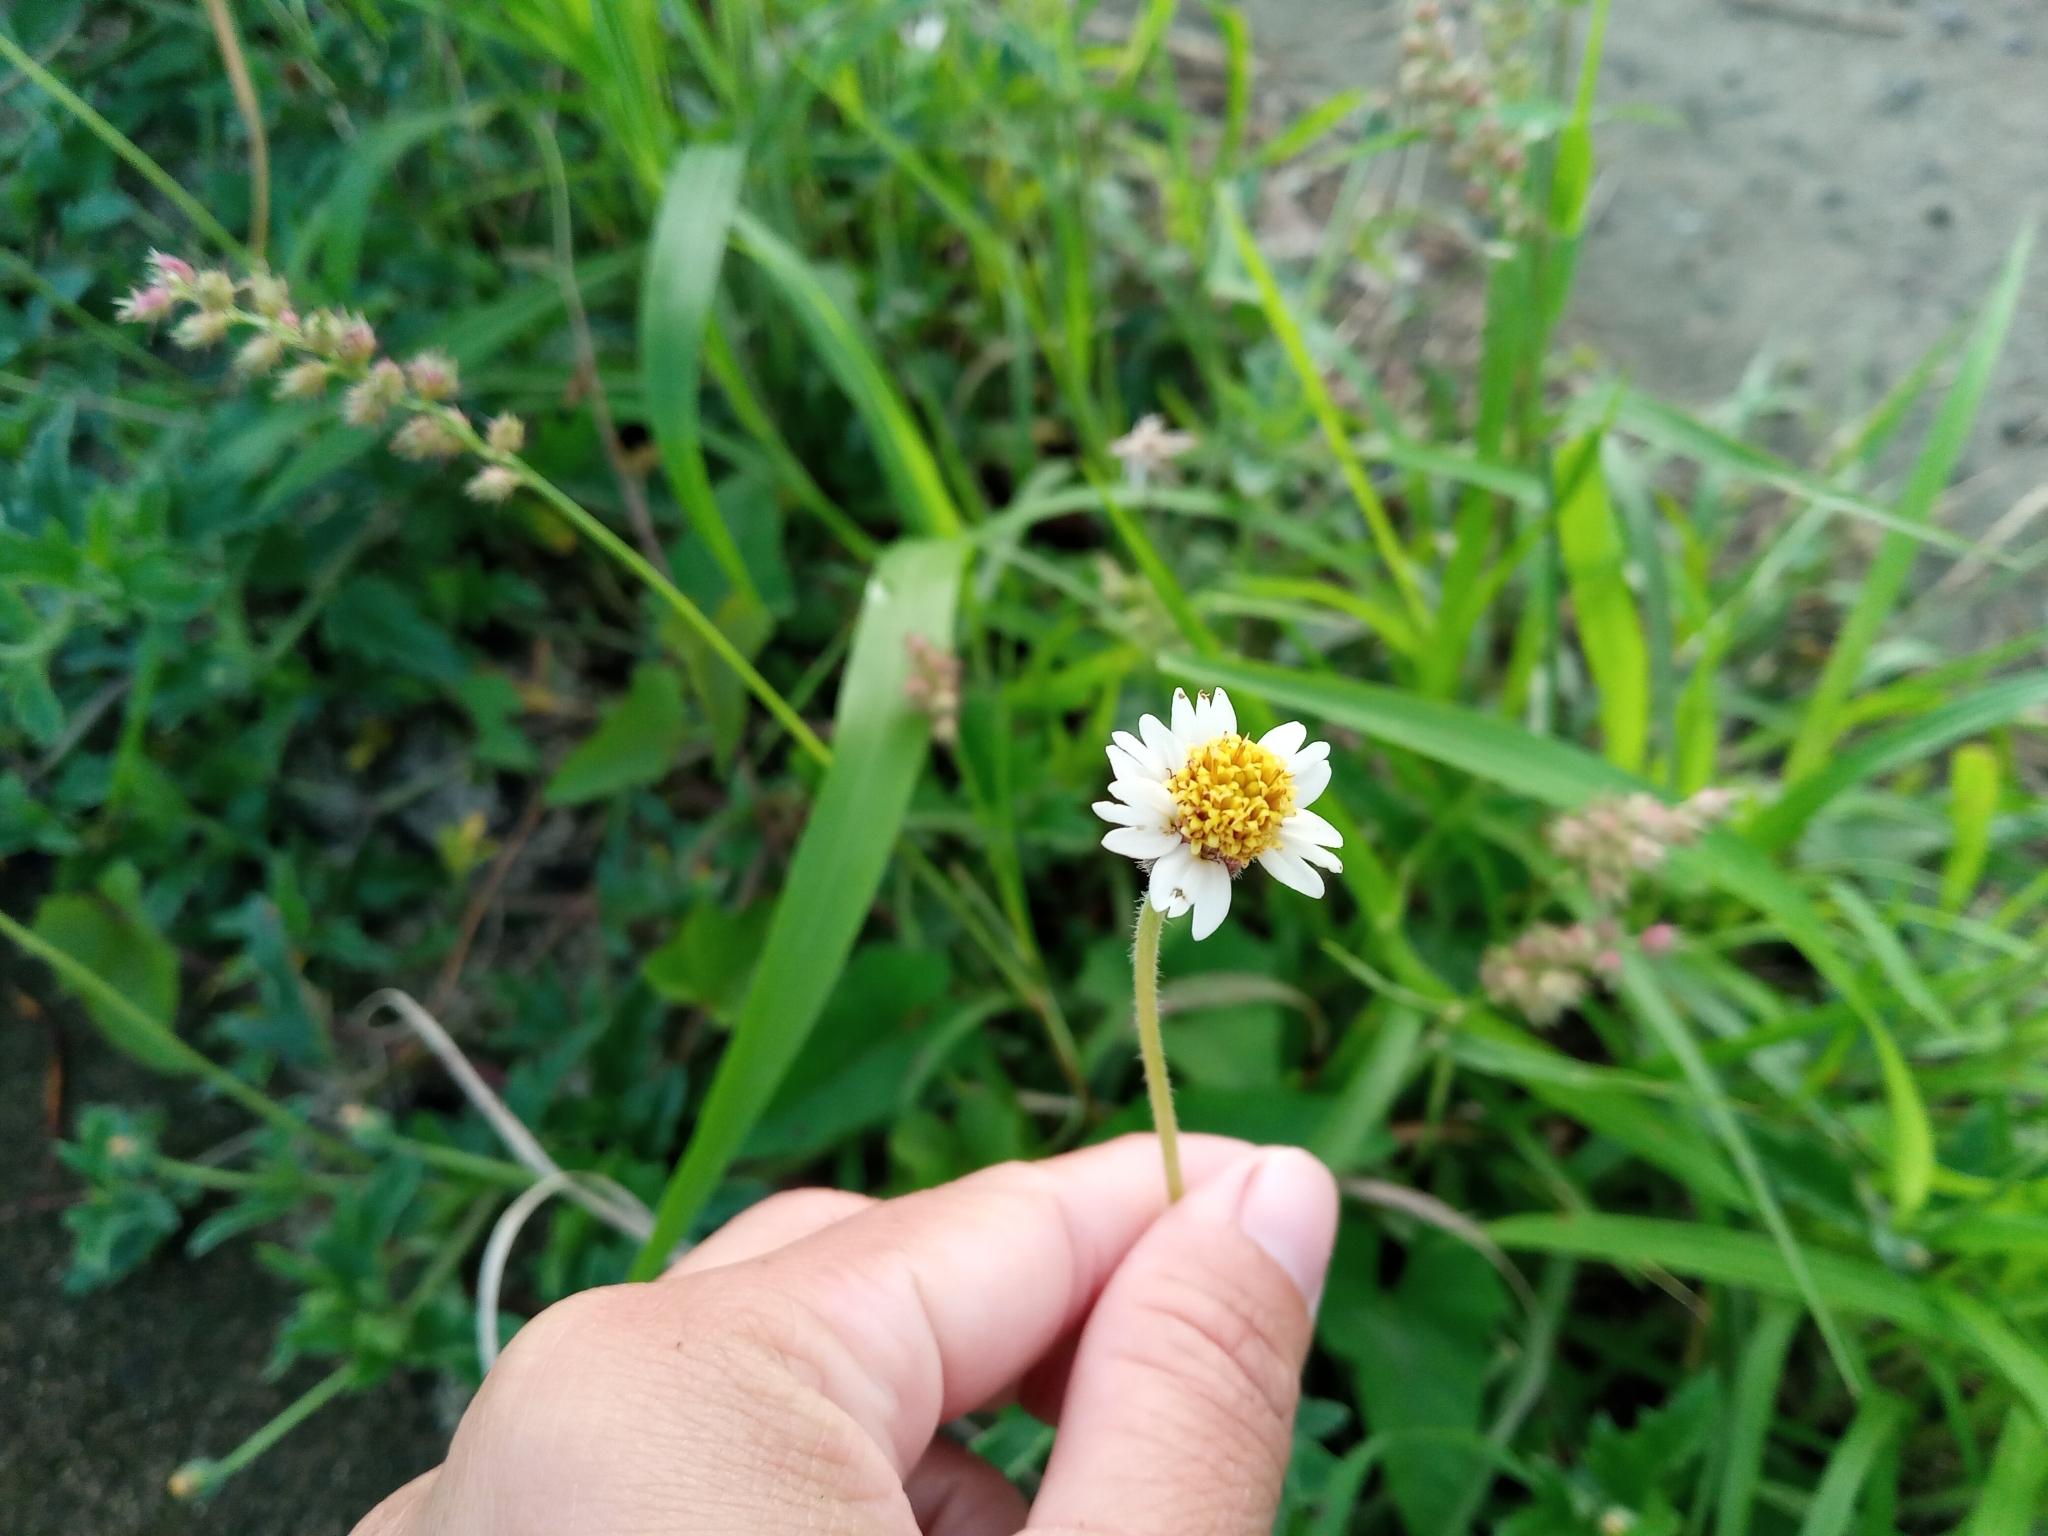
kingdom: Plantae
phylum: Tracheophyta
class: Magnoliopsida
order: Asterales
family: Asteraceae
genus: Tridax
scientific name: Tridax procumbens
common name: Coatbuttons
